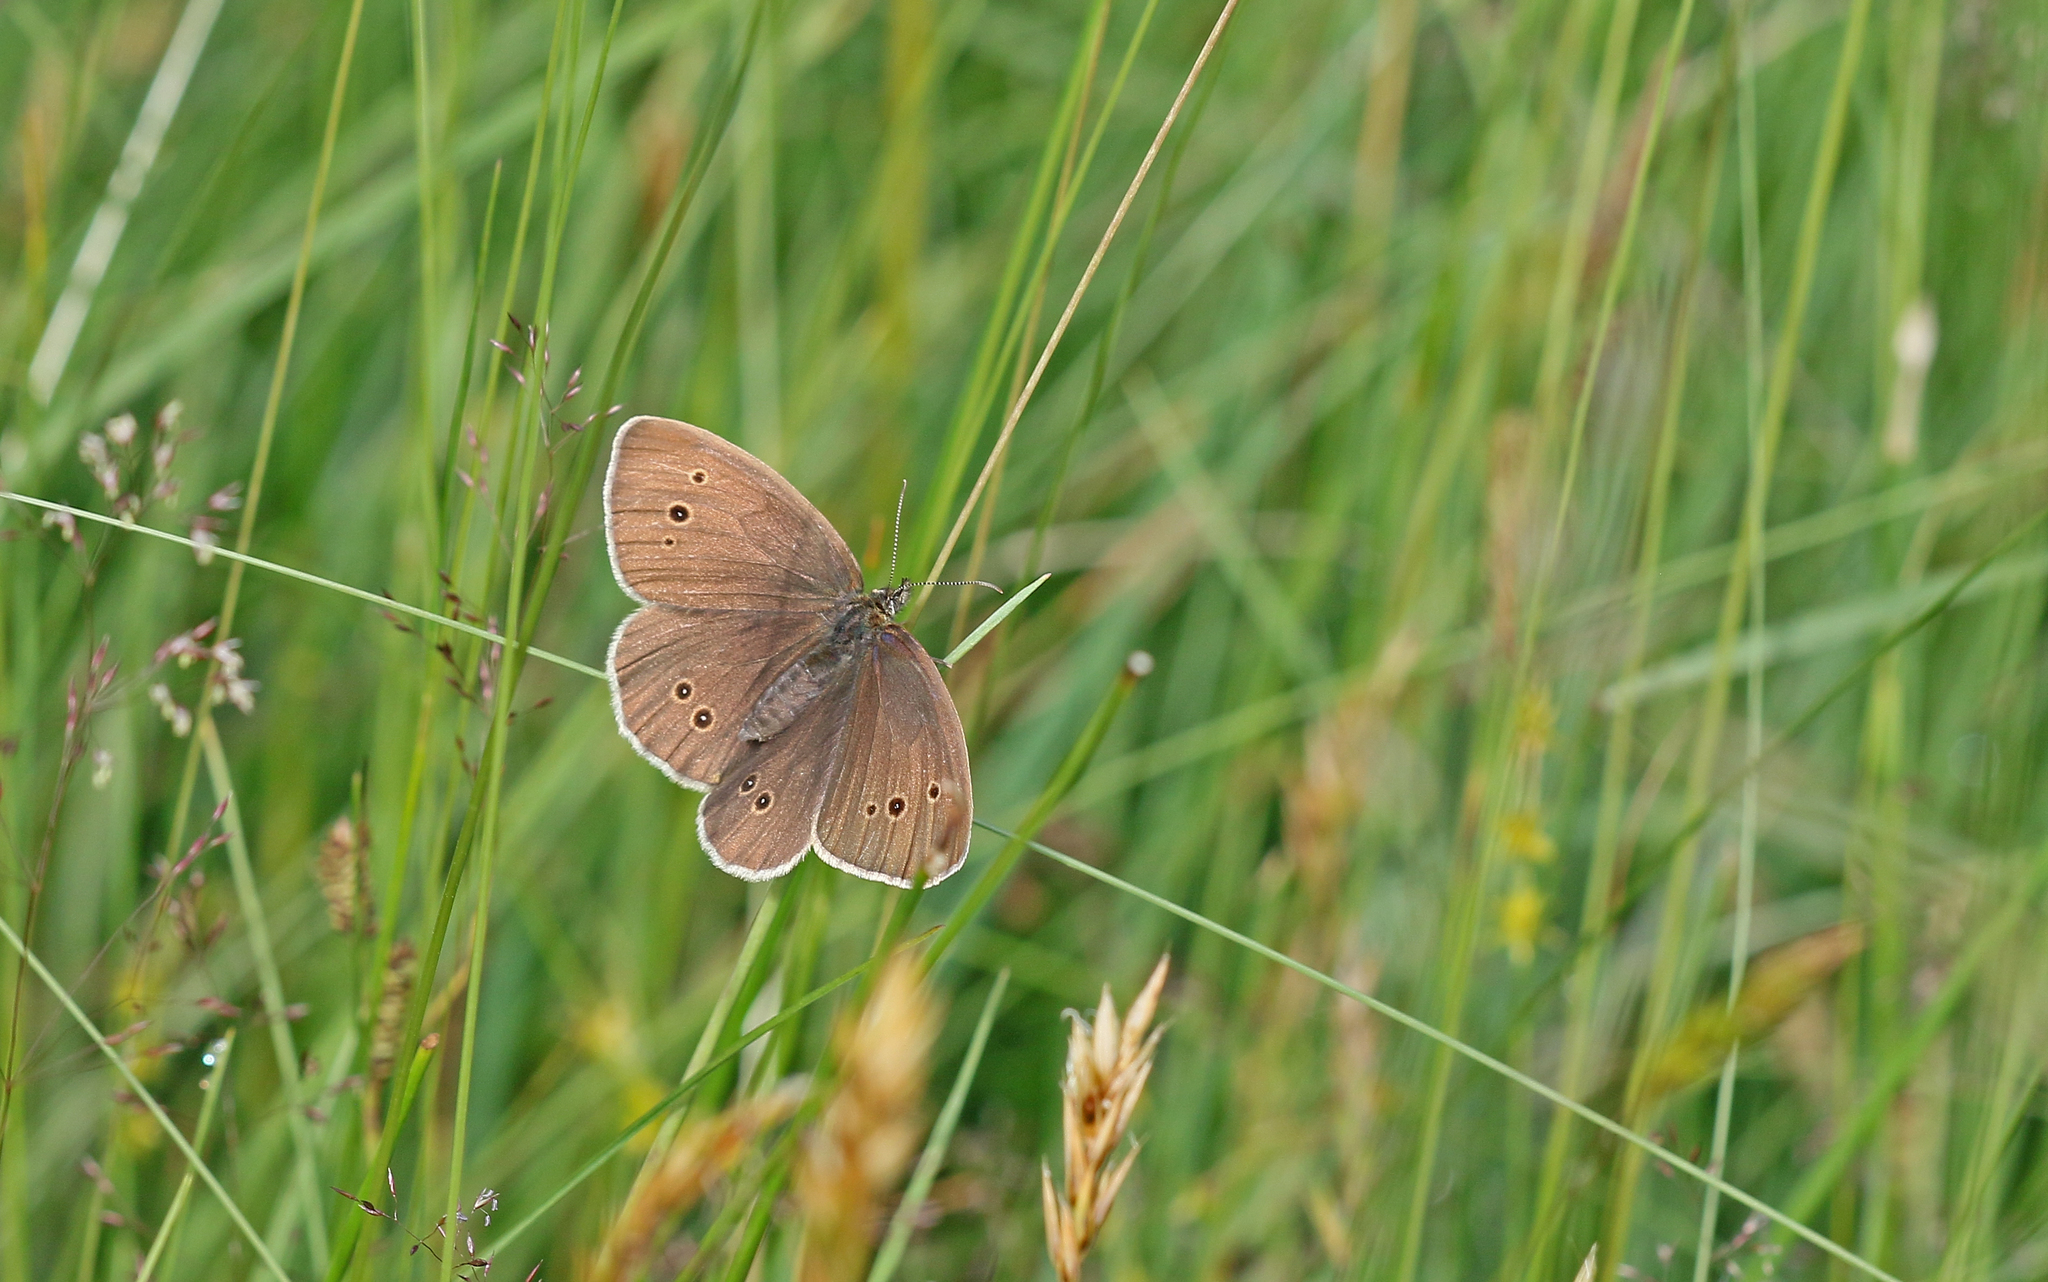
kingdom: Animalia
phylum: Arthropoda
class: Insecta
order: Lepidoptera
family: Nymphalidae
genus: Aphantopus
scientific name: Aphantopus hyperantus
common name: Ringlet
